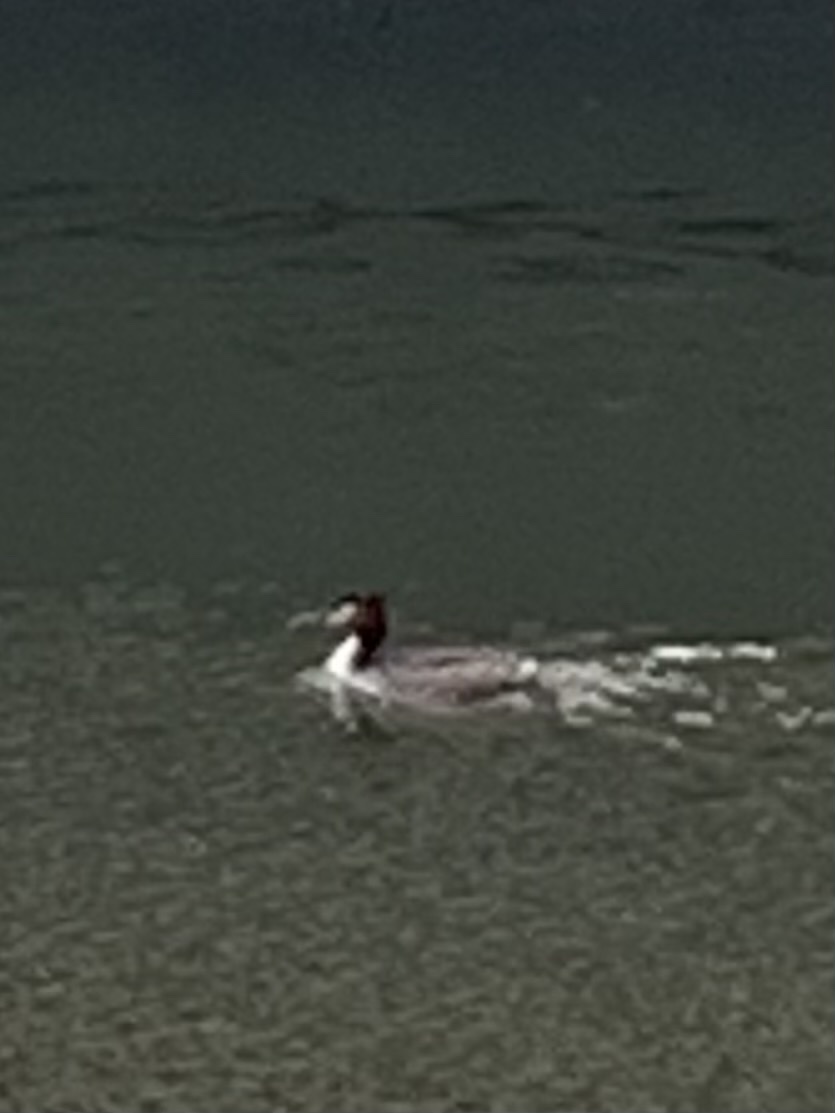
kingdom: Animalia
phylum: Chordata
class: Aves
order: Podicipediformes
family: Podicipedidae
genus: Podiceps
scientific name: Podiceps cristatus
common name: Great crested grebe
